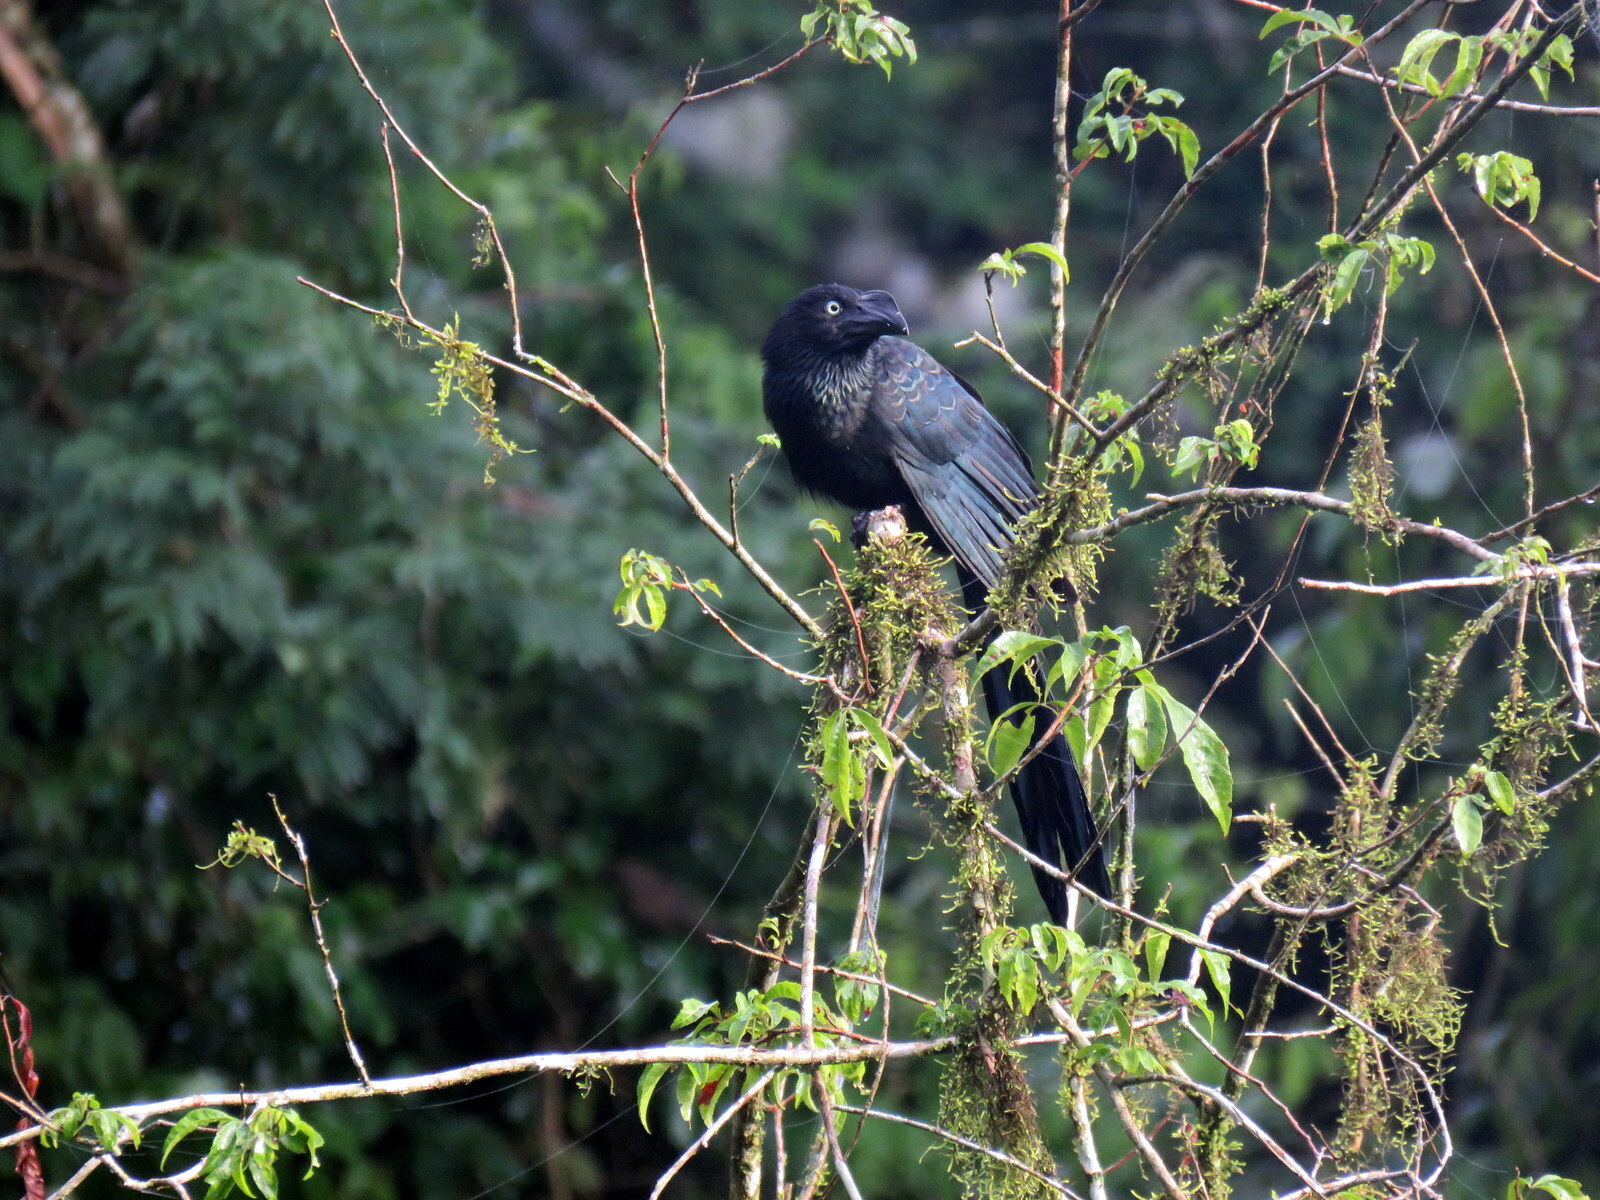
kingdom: Animalia
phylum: Chordata
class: Aves
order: Cuculiformes
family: Cuculidae
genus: Crotophaga
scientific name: Crotophaga major
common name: Greater ani
